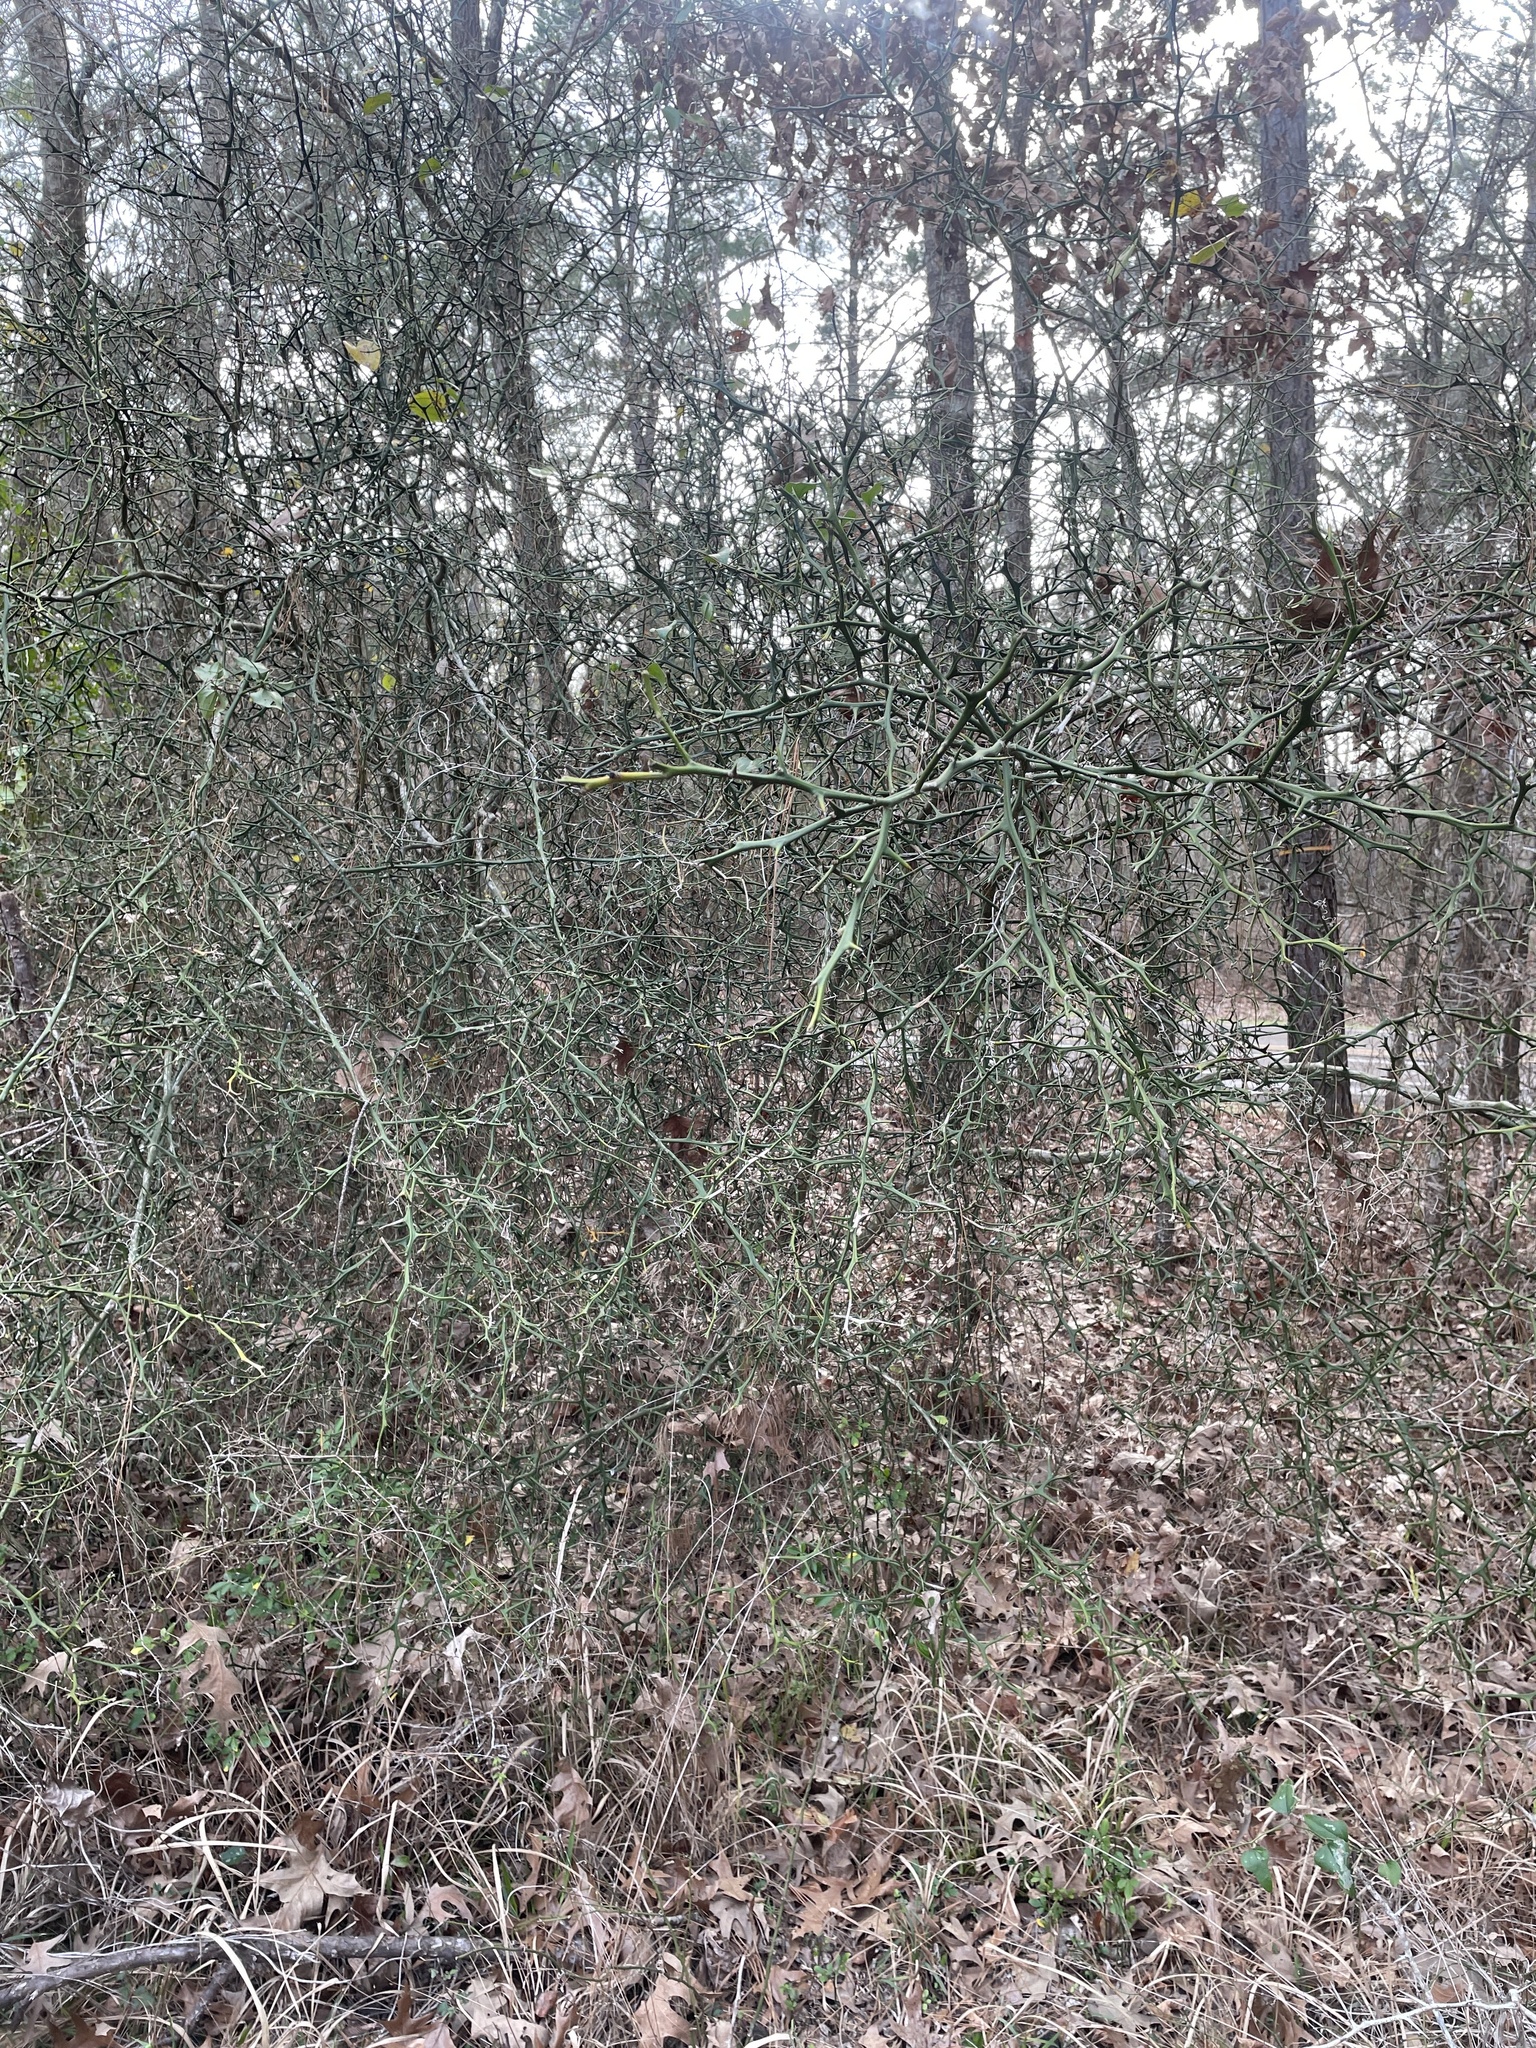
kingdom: Plantae
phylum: Tracheophyta
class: Magnoliopsida
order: Sapindales
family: Rutaceae
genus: Citrus
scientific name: Citrus trifoliata
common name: Japanese bitter-orange
